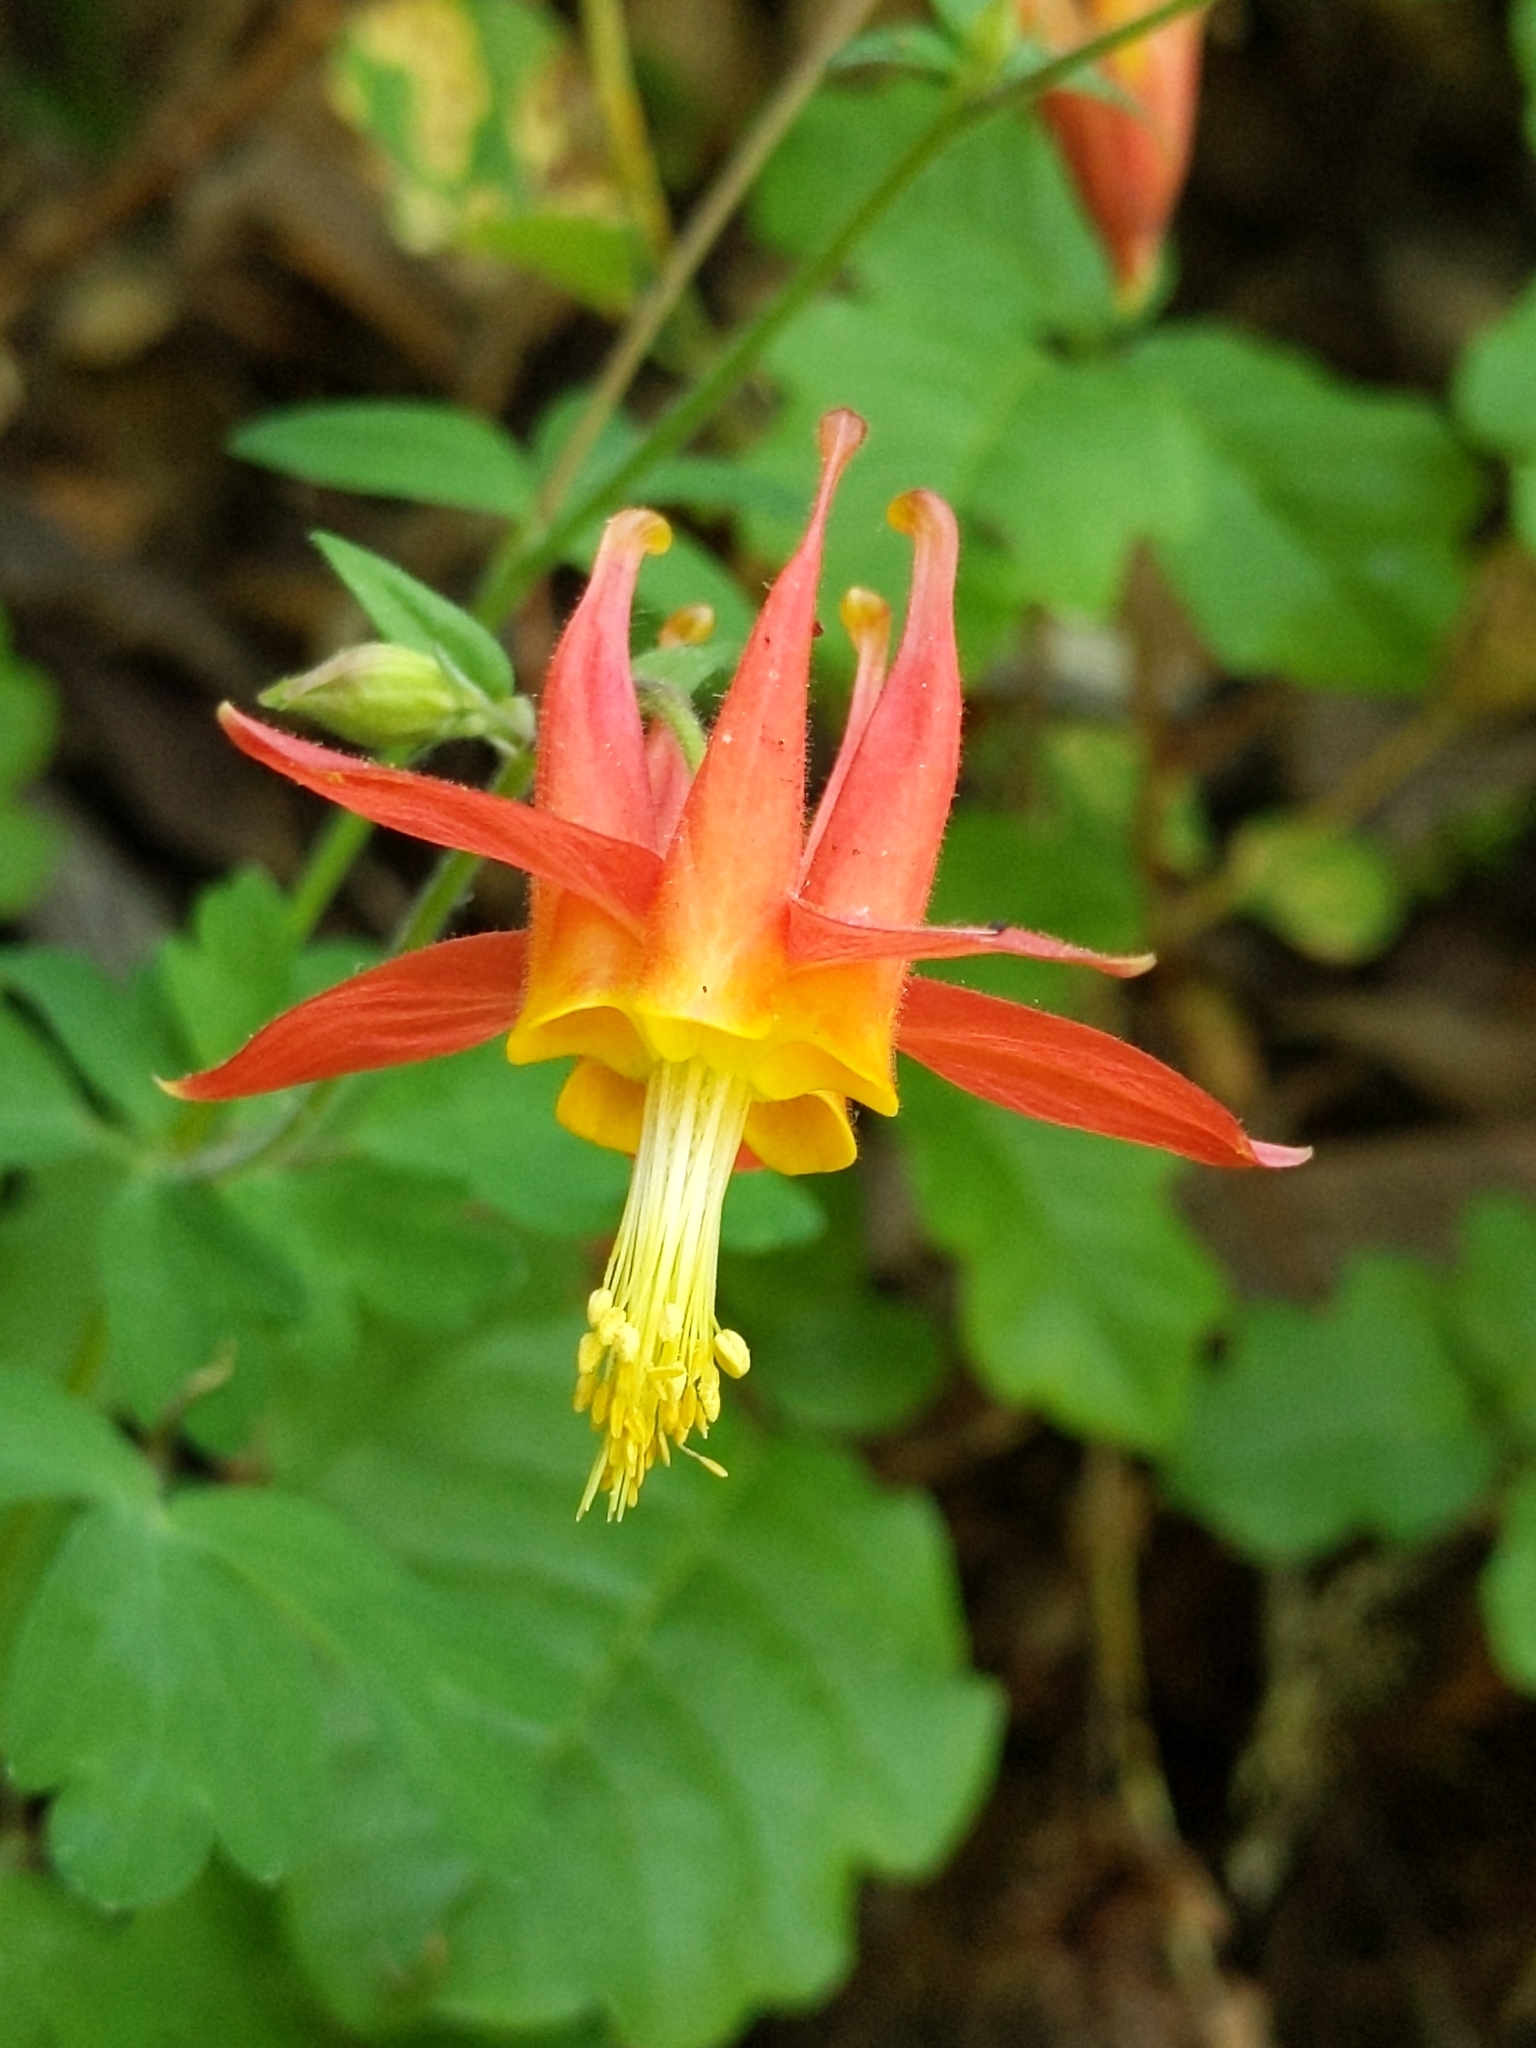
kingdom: Plantae
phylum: Tracheophyta
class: Magnoliopsida
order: Ranunculales
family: Ranunculaceae
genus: Aquilegia
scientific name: Aquilegia formosa
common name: Sitka columbine
